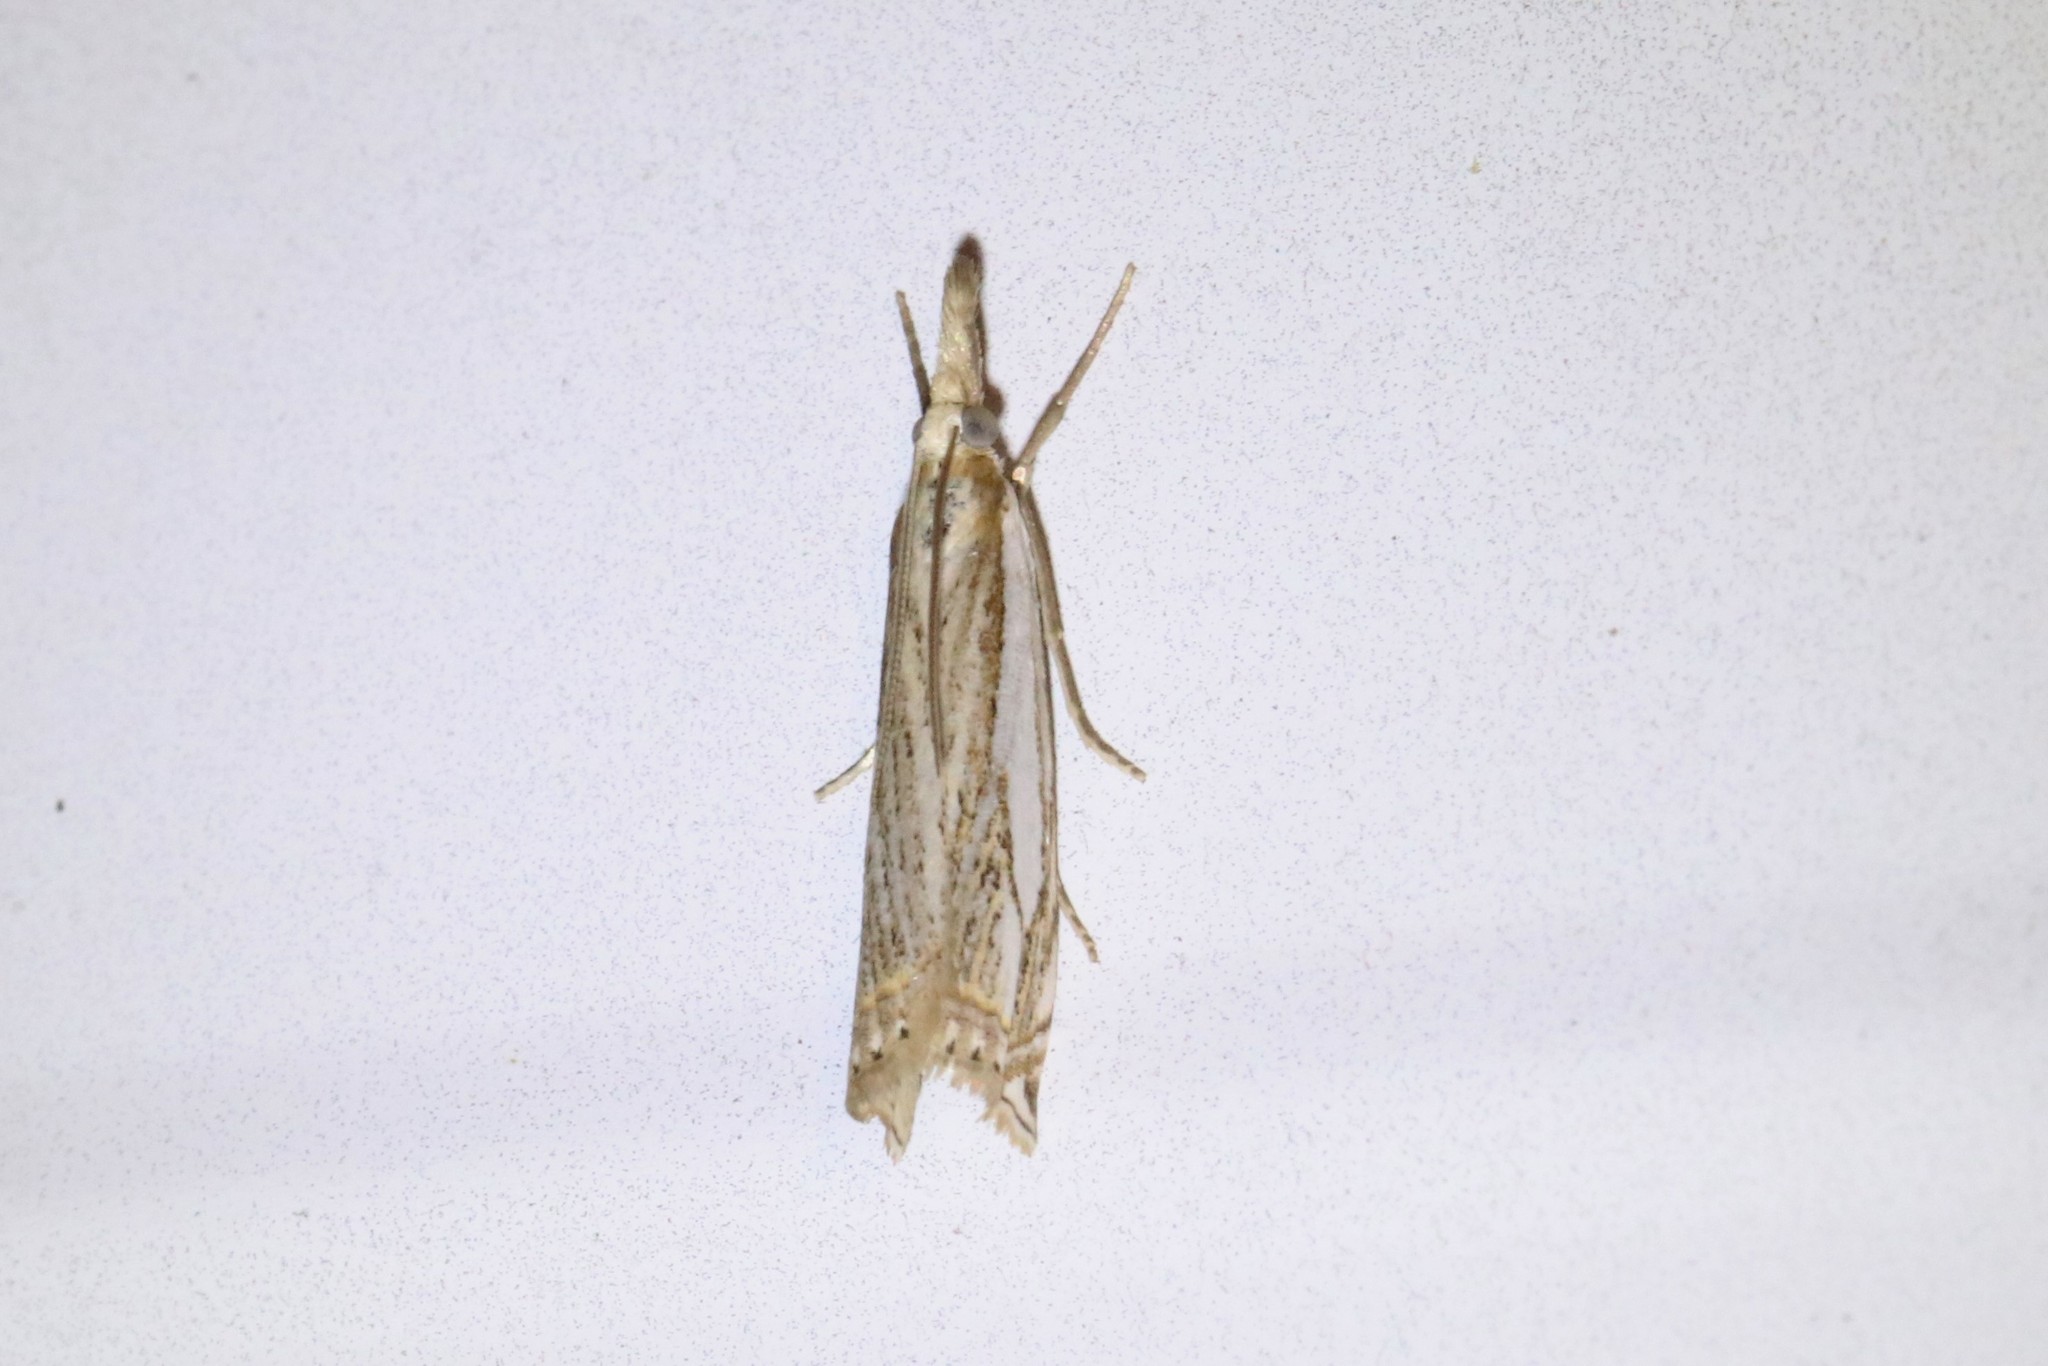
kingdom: Animalia
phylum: Arthropoda
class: Insecta
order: Lepidoptera
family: Crambidae
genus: Crambus
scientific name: Crambus saltuellus
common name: Pasture grass-veneer
